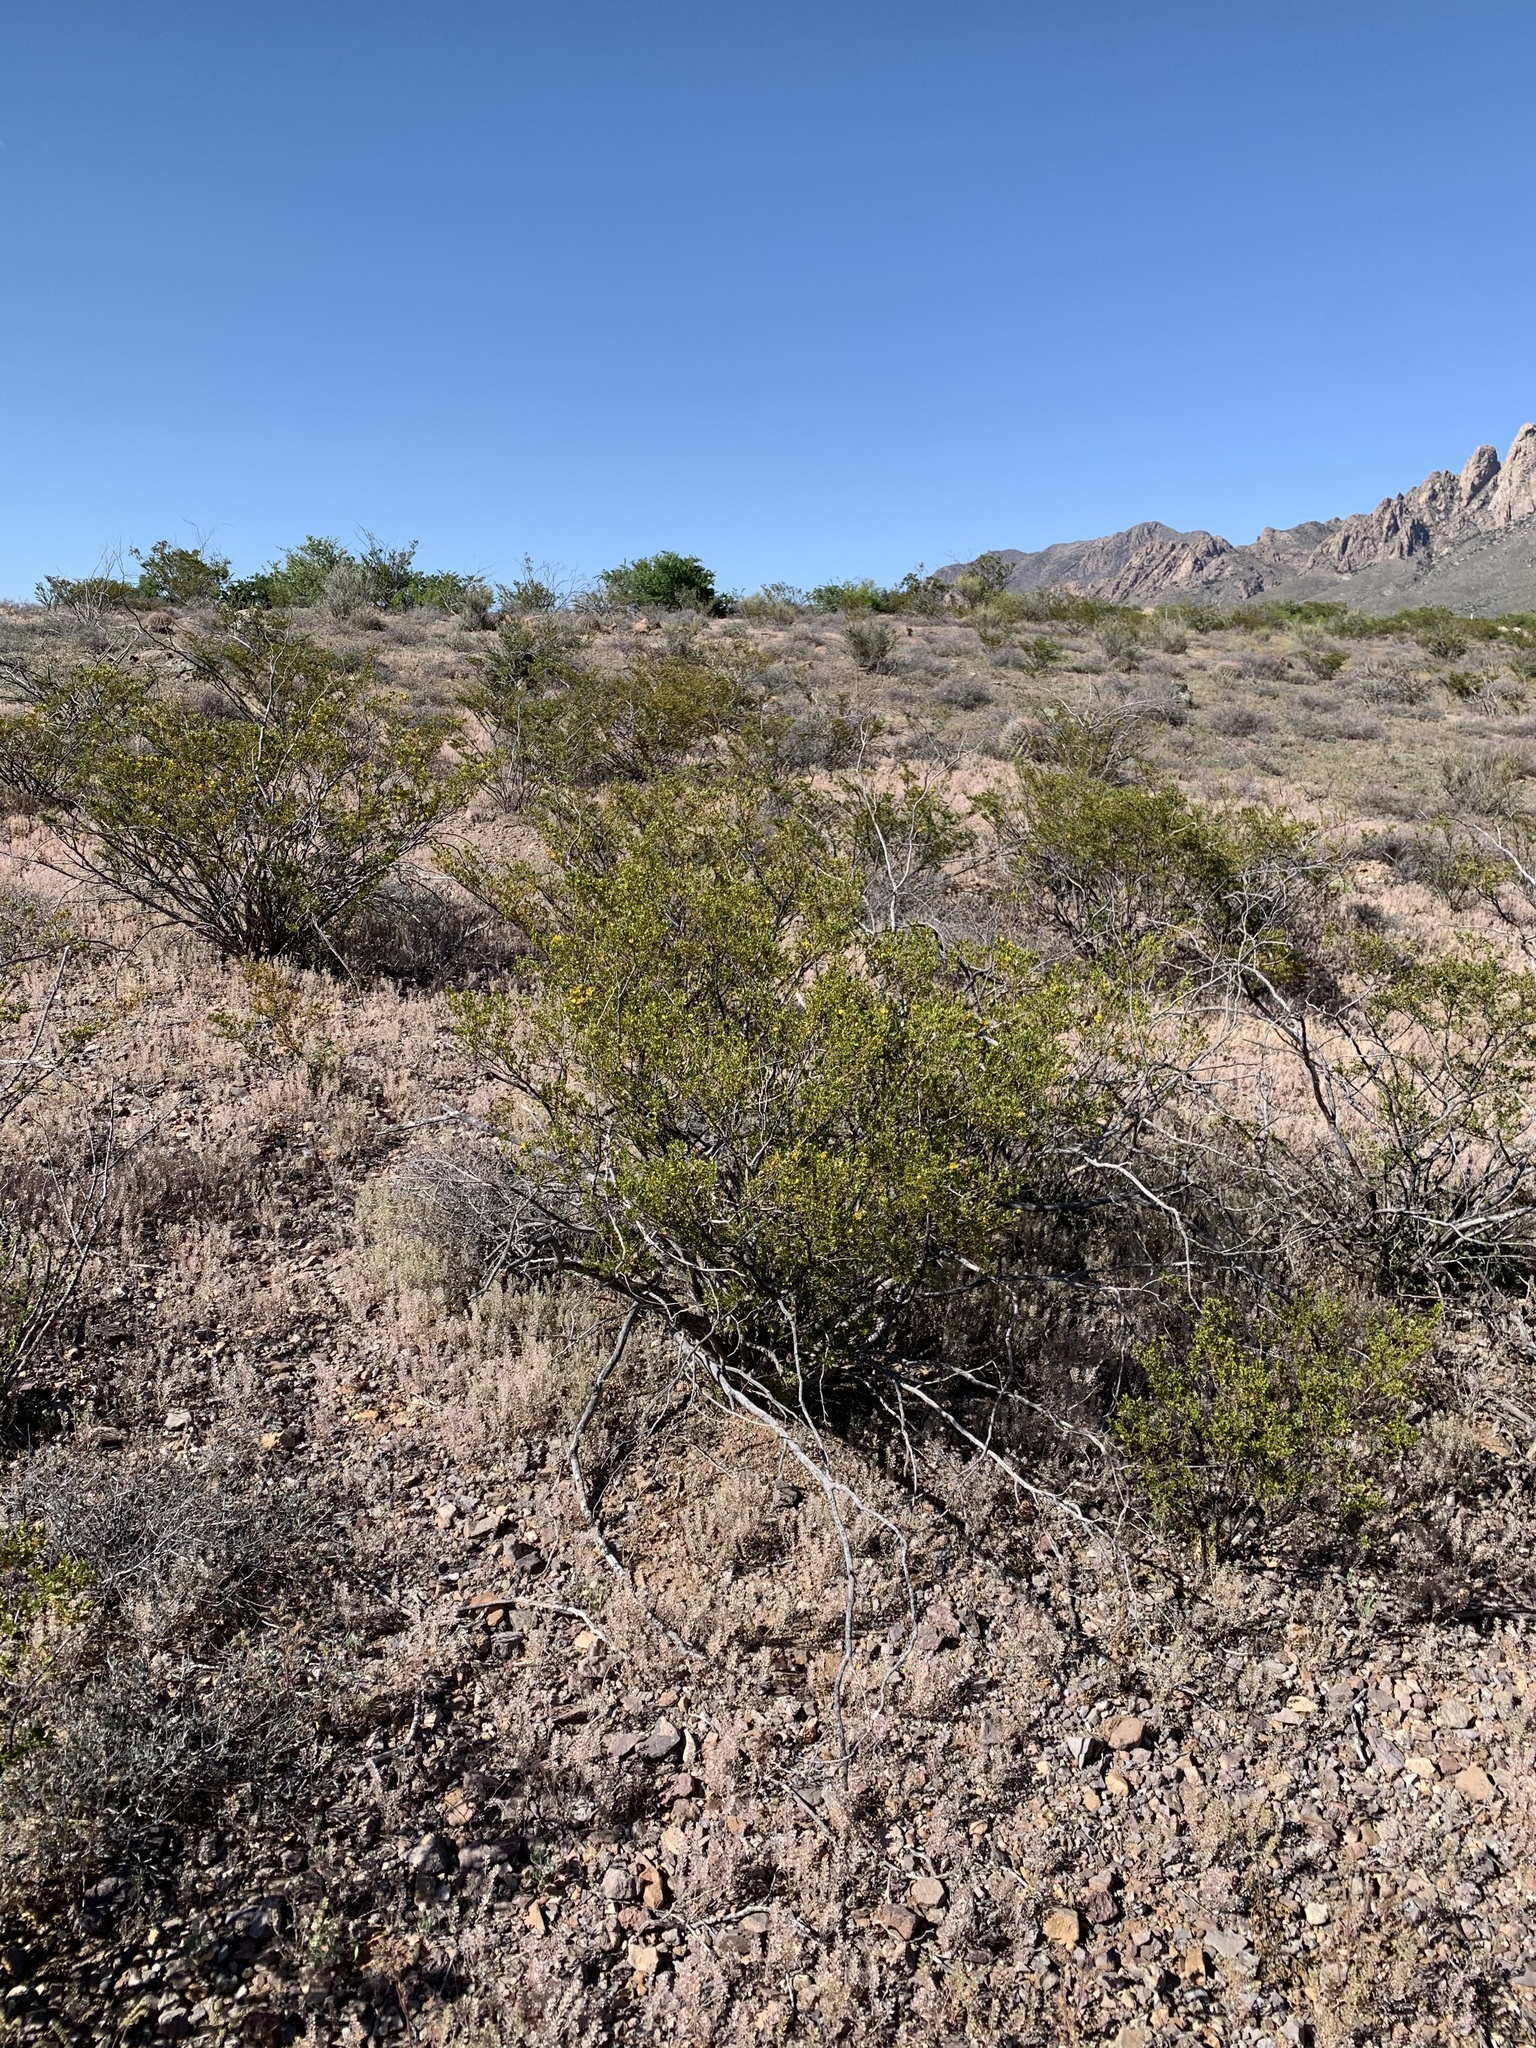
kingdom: Plantae
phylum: Tracheophyta
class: Magnoliopsida
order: Zygophyllales
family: Zygophyllaceae
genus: Larrea
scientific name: Larrea tridentata
